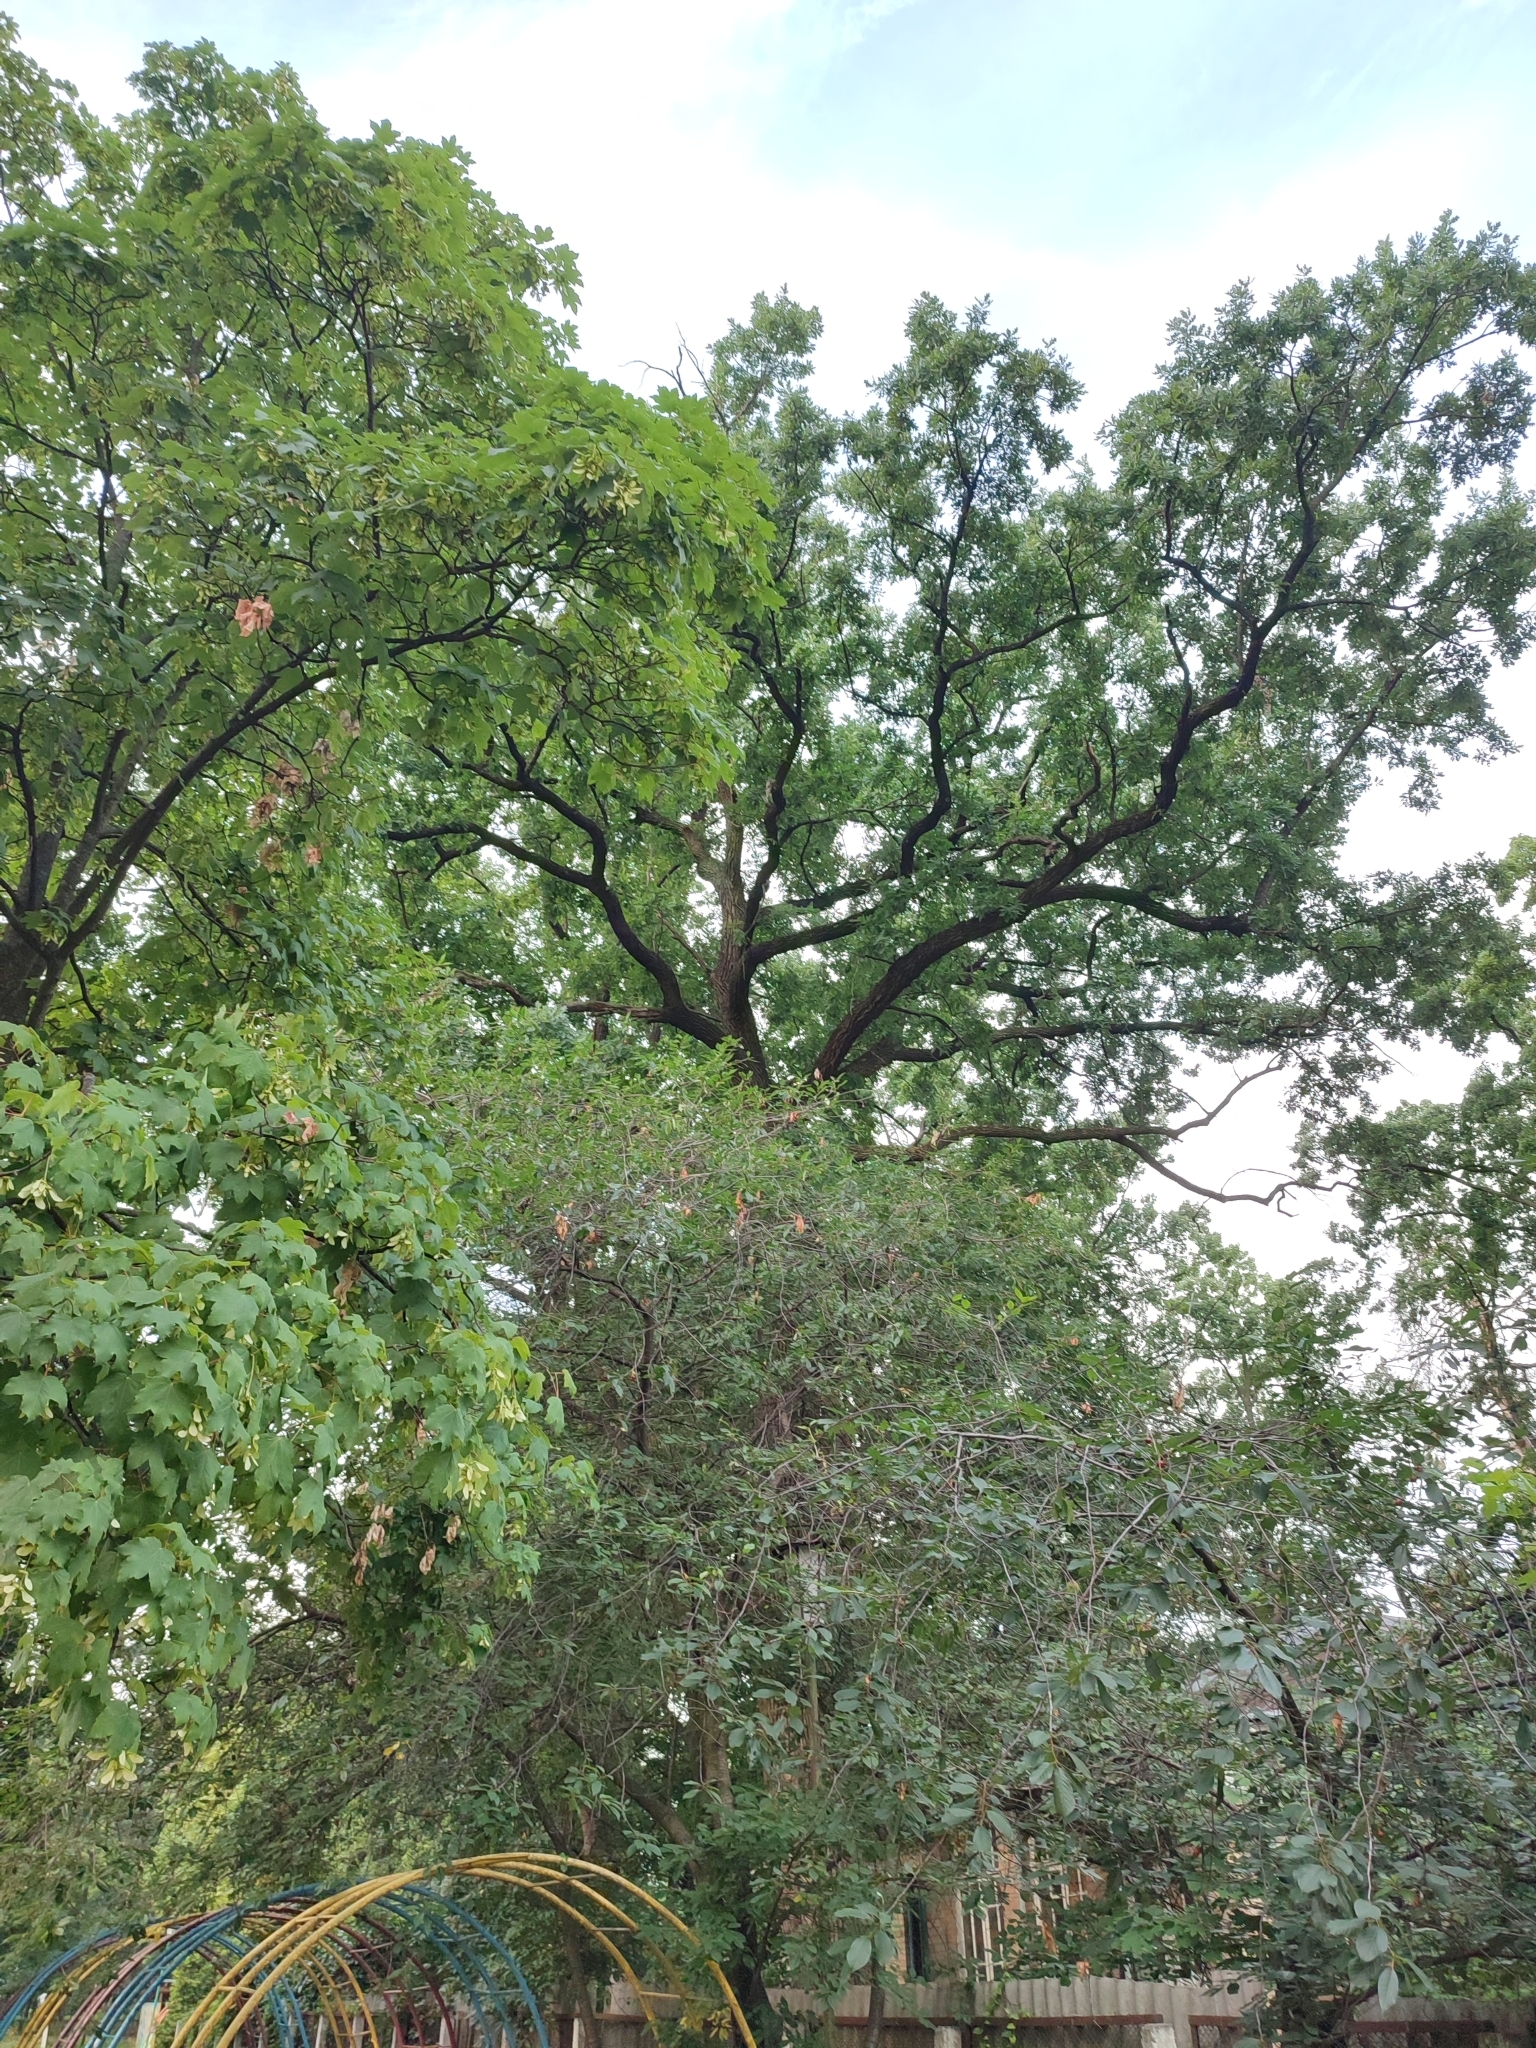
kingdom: Plantae
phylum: Tracheophyta
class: Magnoliopsida
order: Fagales
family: Fagaceae
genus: Quercus
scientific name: Quercus robur
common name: Pedunculate oak
